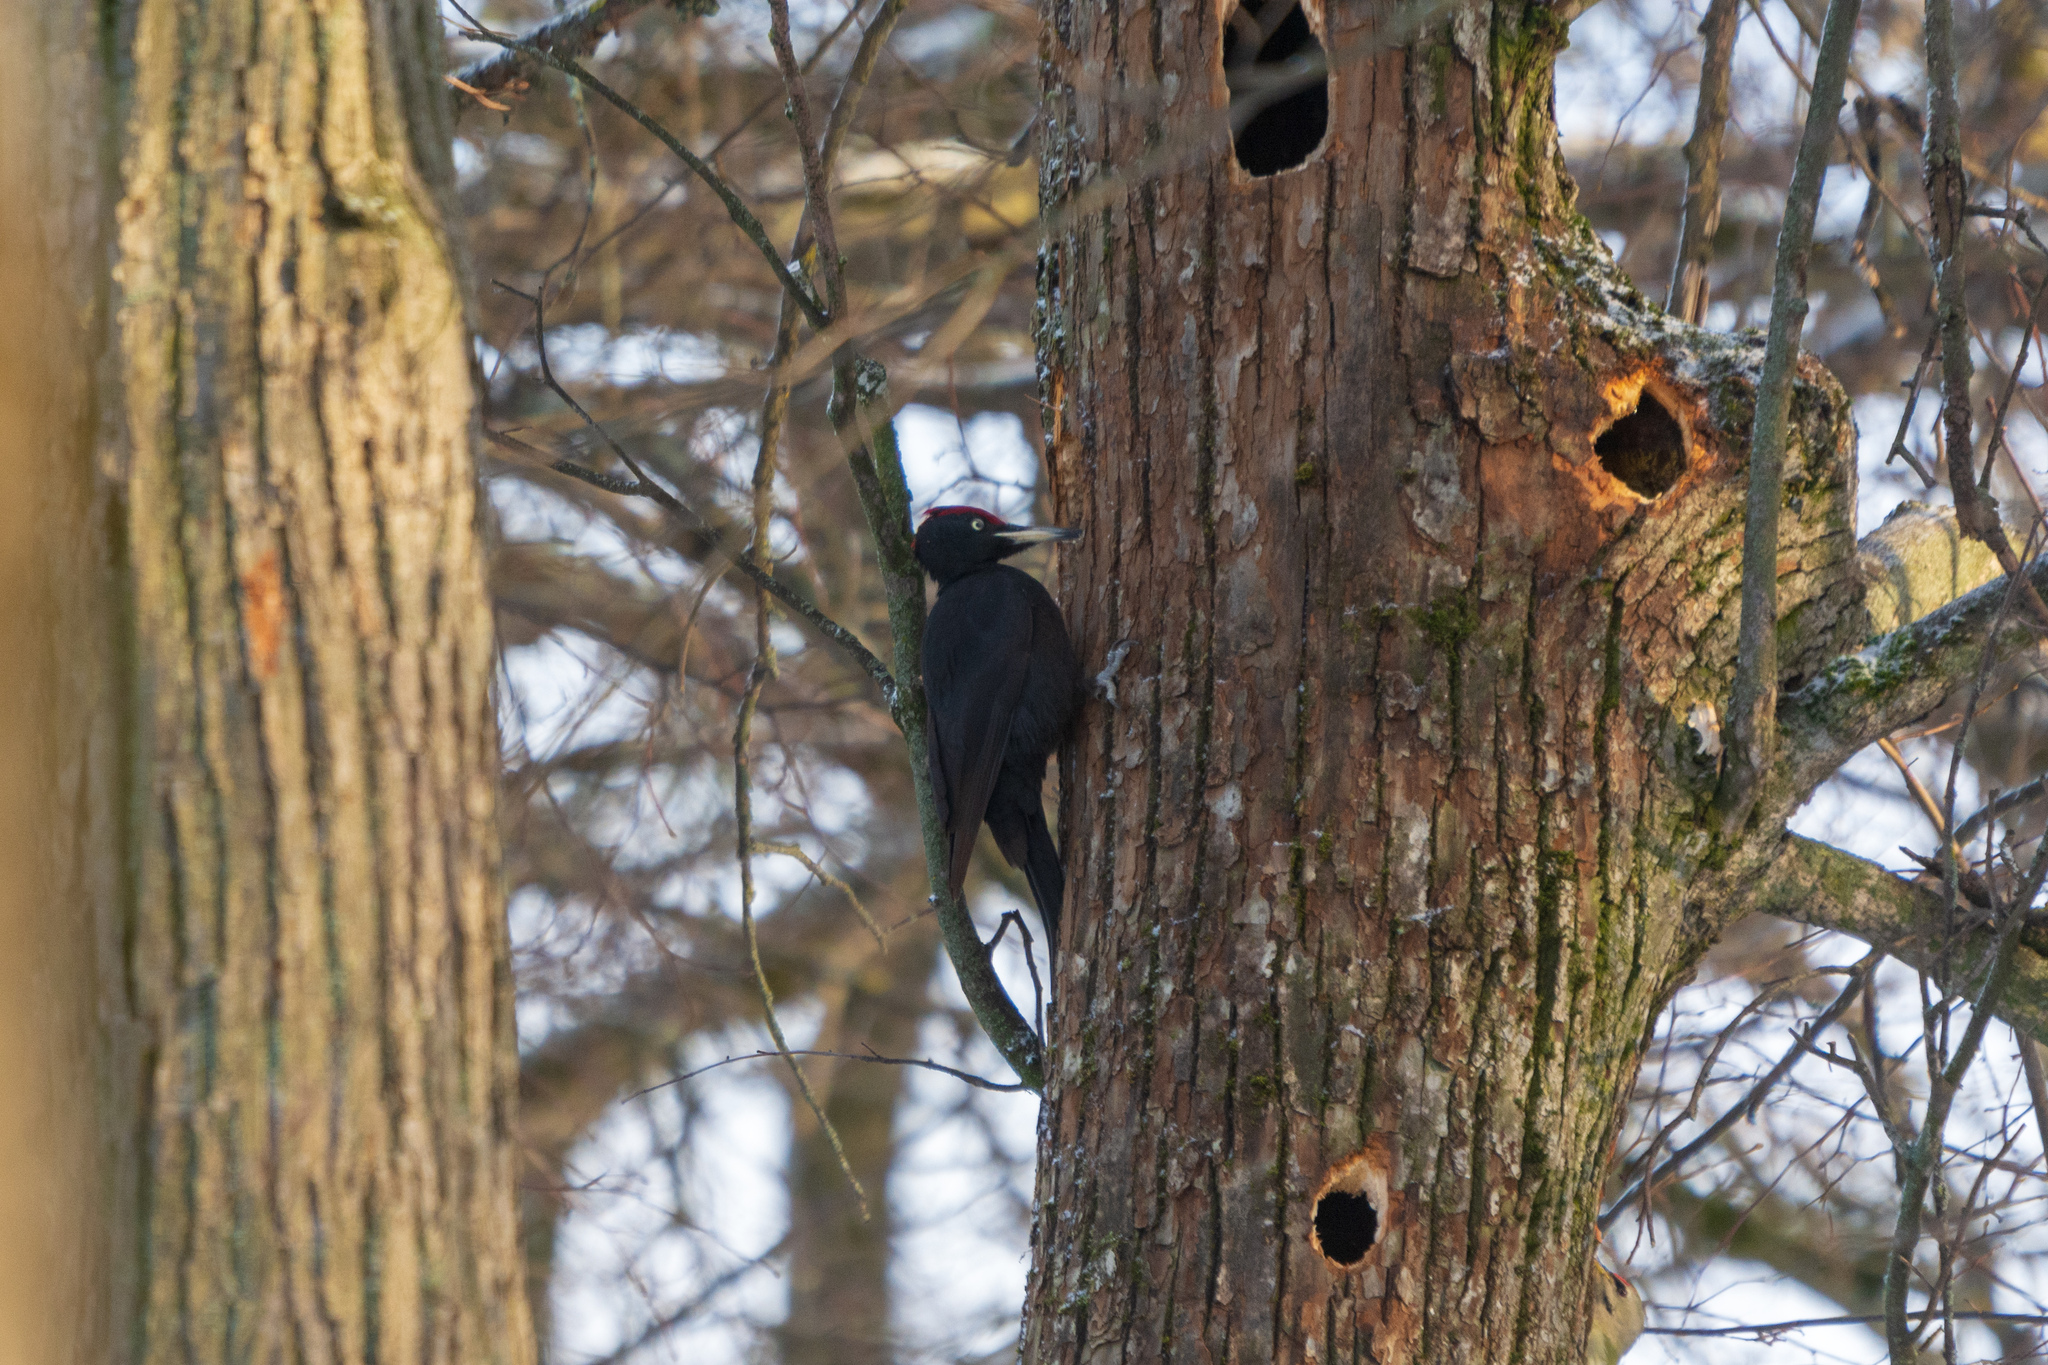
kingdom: Animalia
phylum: Chordata
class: Aves
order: Piciformes
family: Picidae
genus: Dryocopus
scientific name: Dryocopus martius
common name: Black woodpecker
